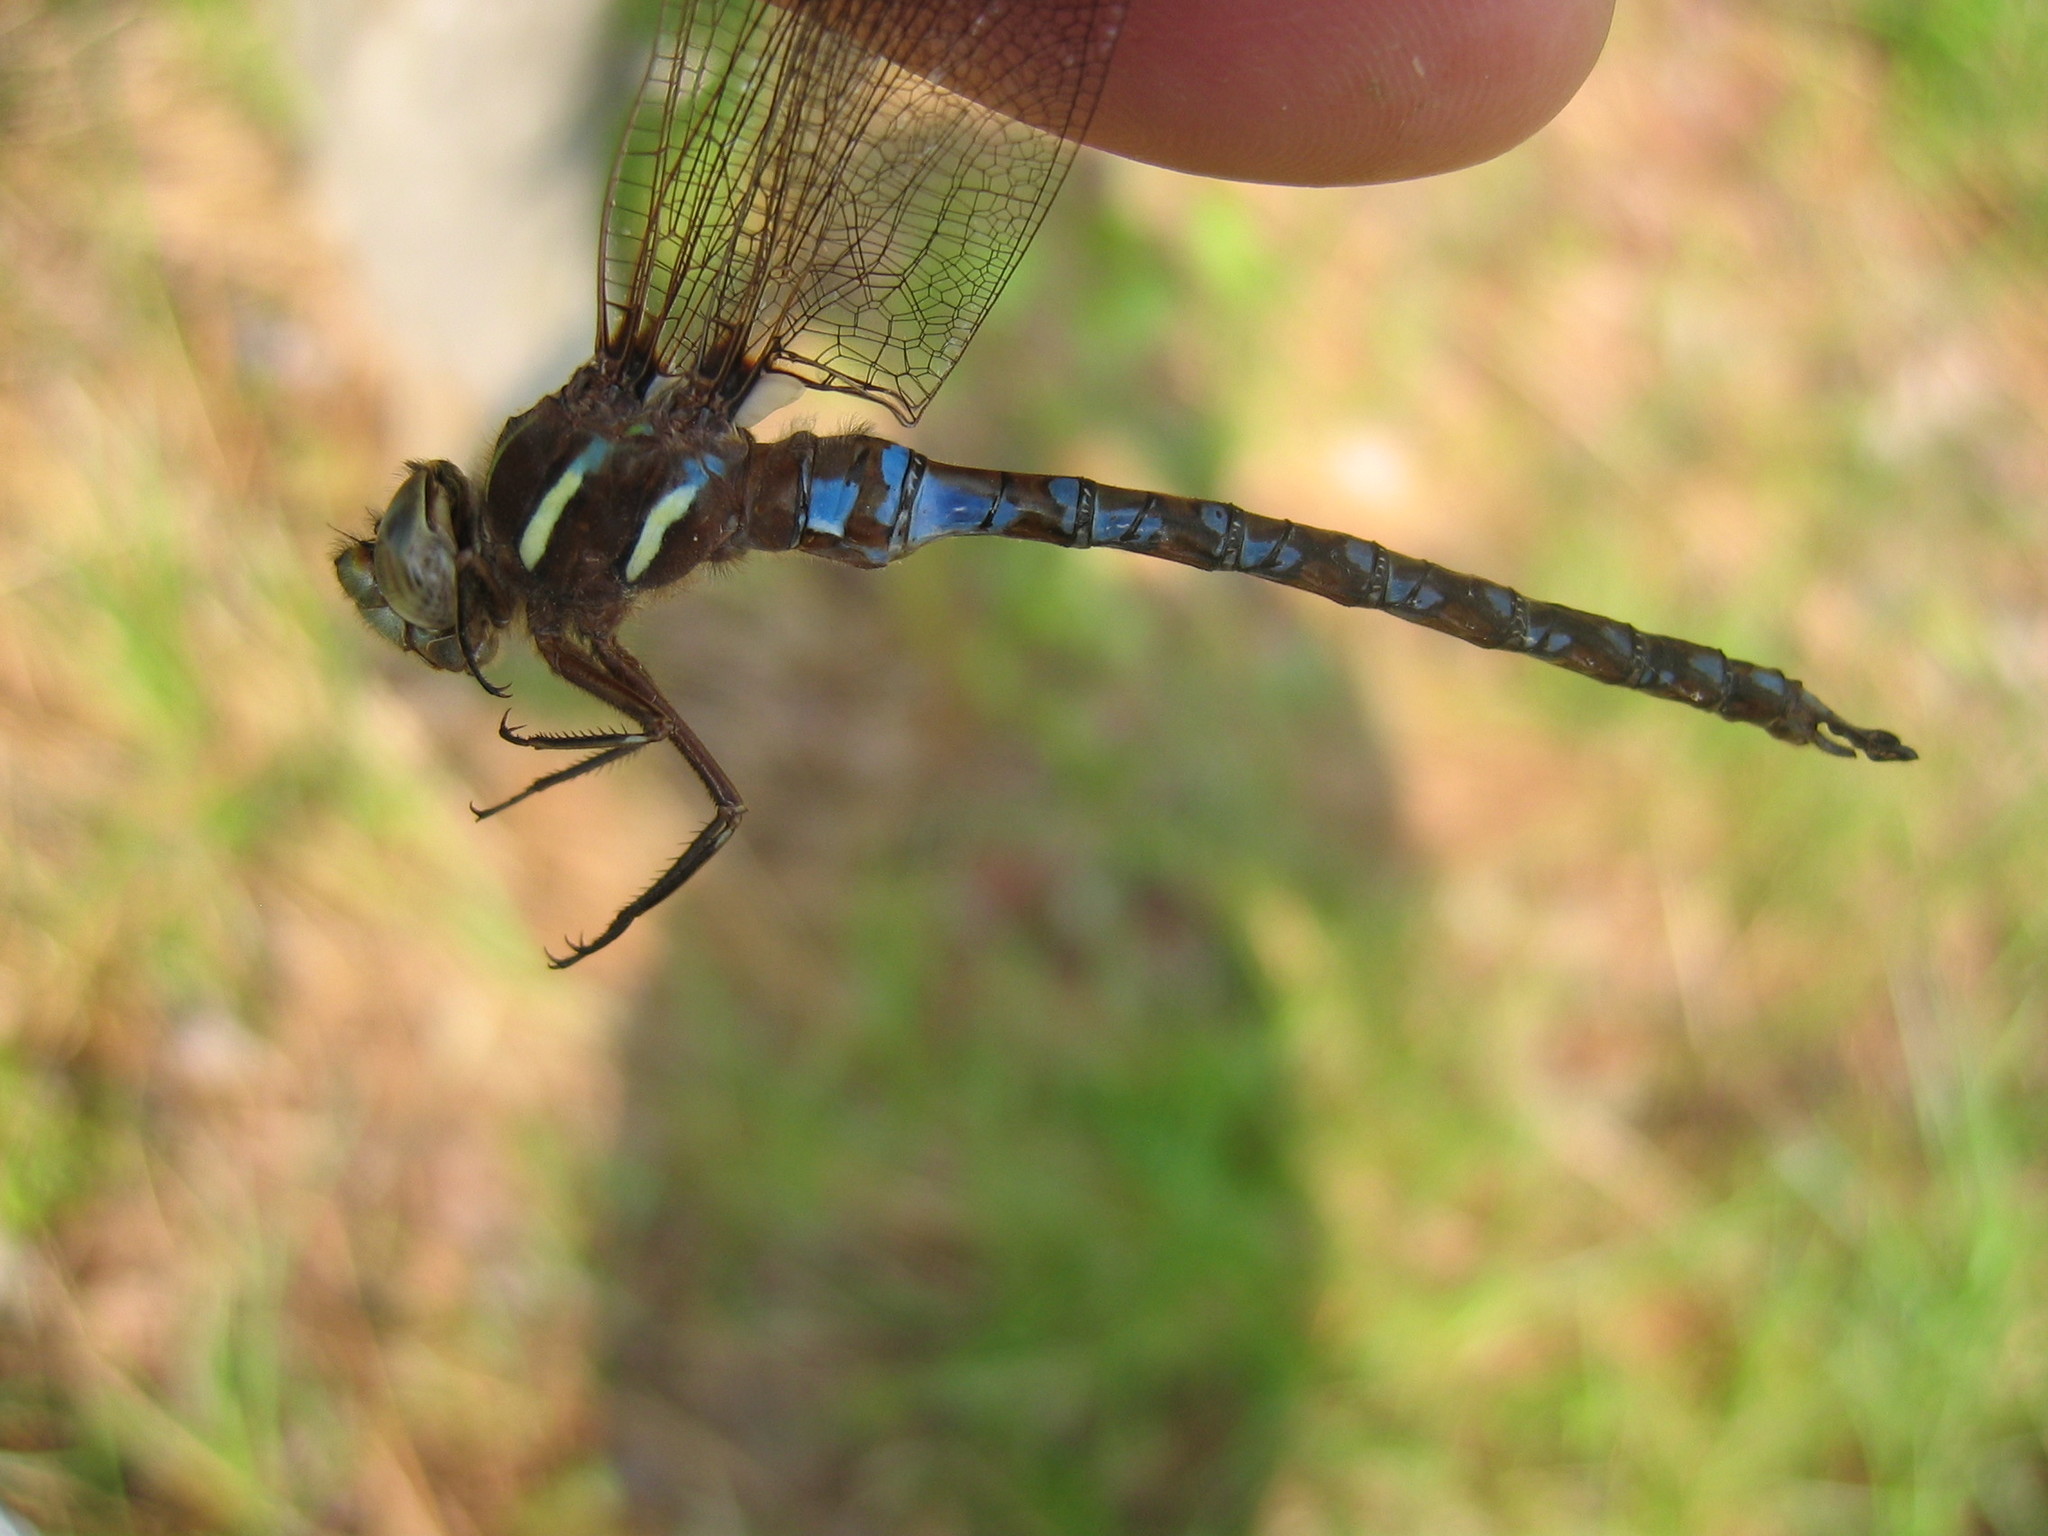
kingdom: Animalia
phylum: Arthropoda
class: Insecta
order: Odonata
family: Aeshnidae
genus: Basiaeschna
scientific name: Basiaeschna janata
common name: Springtime darner
